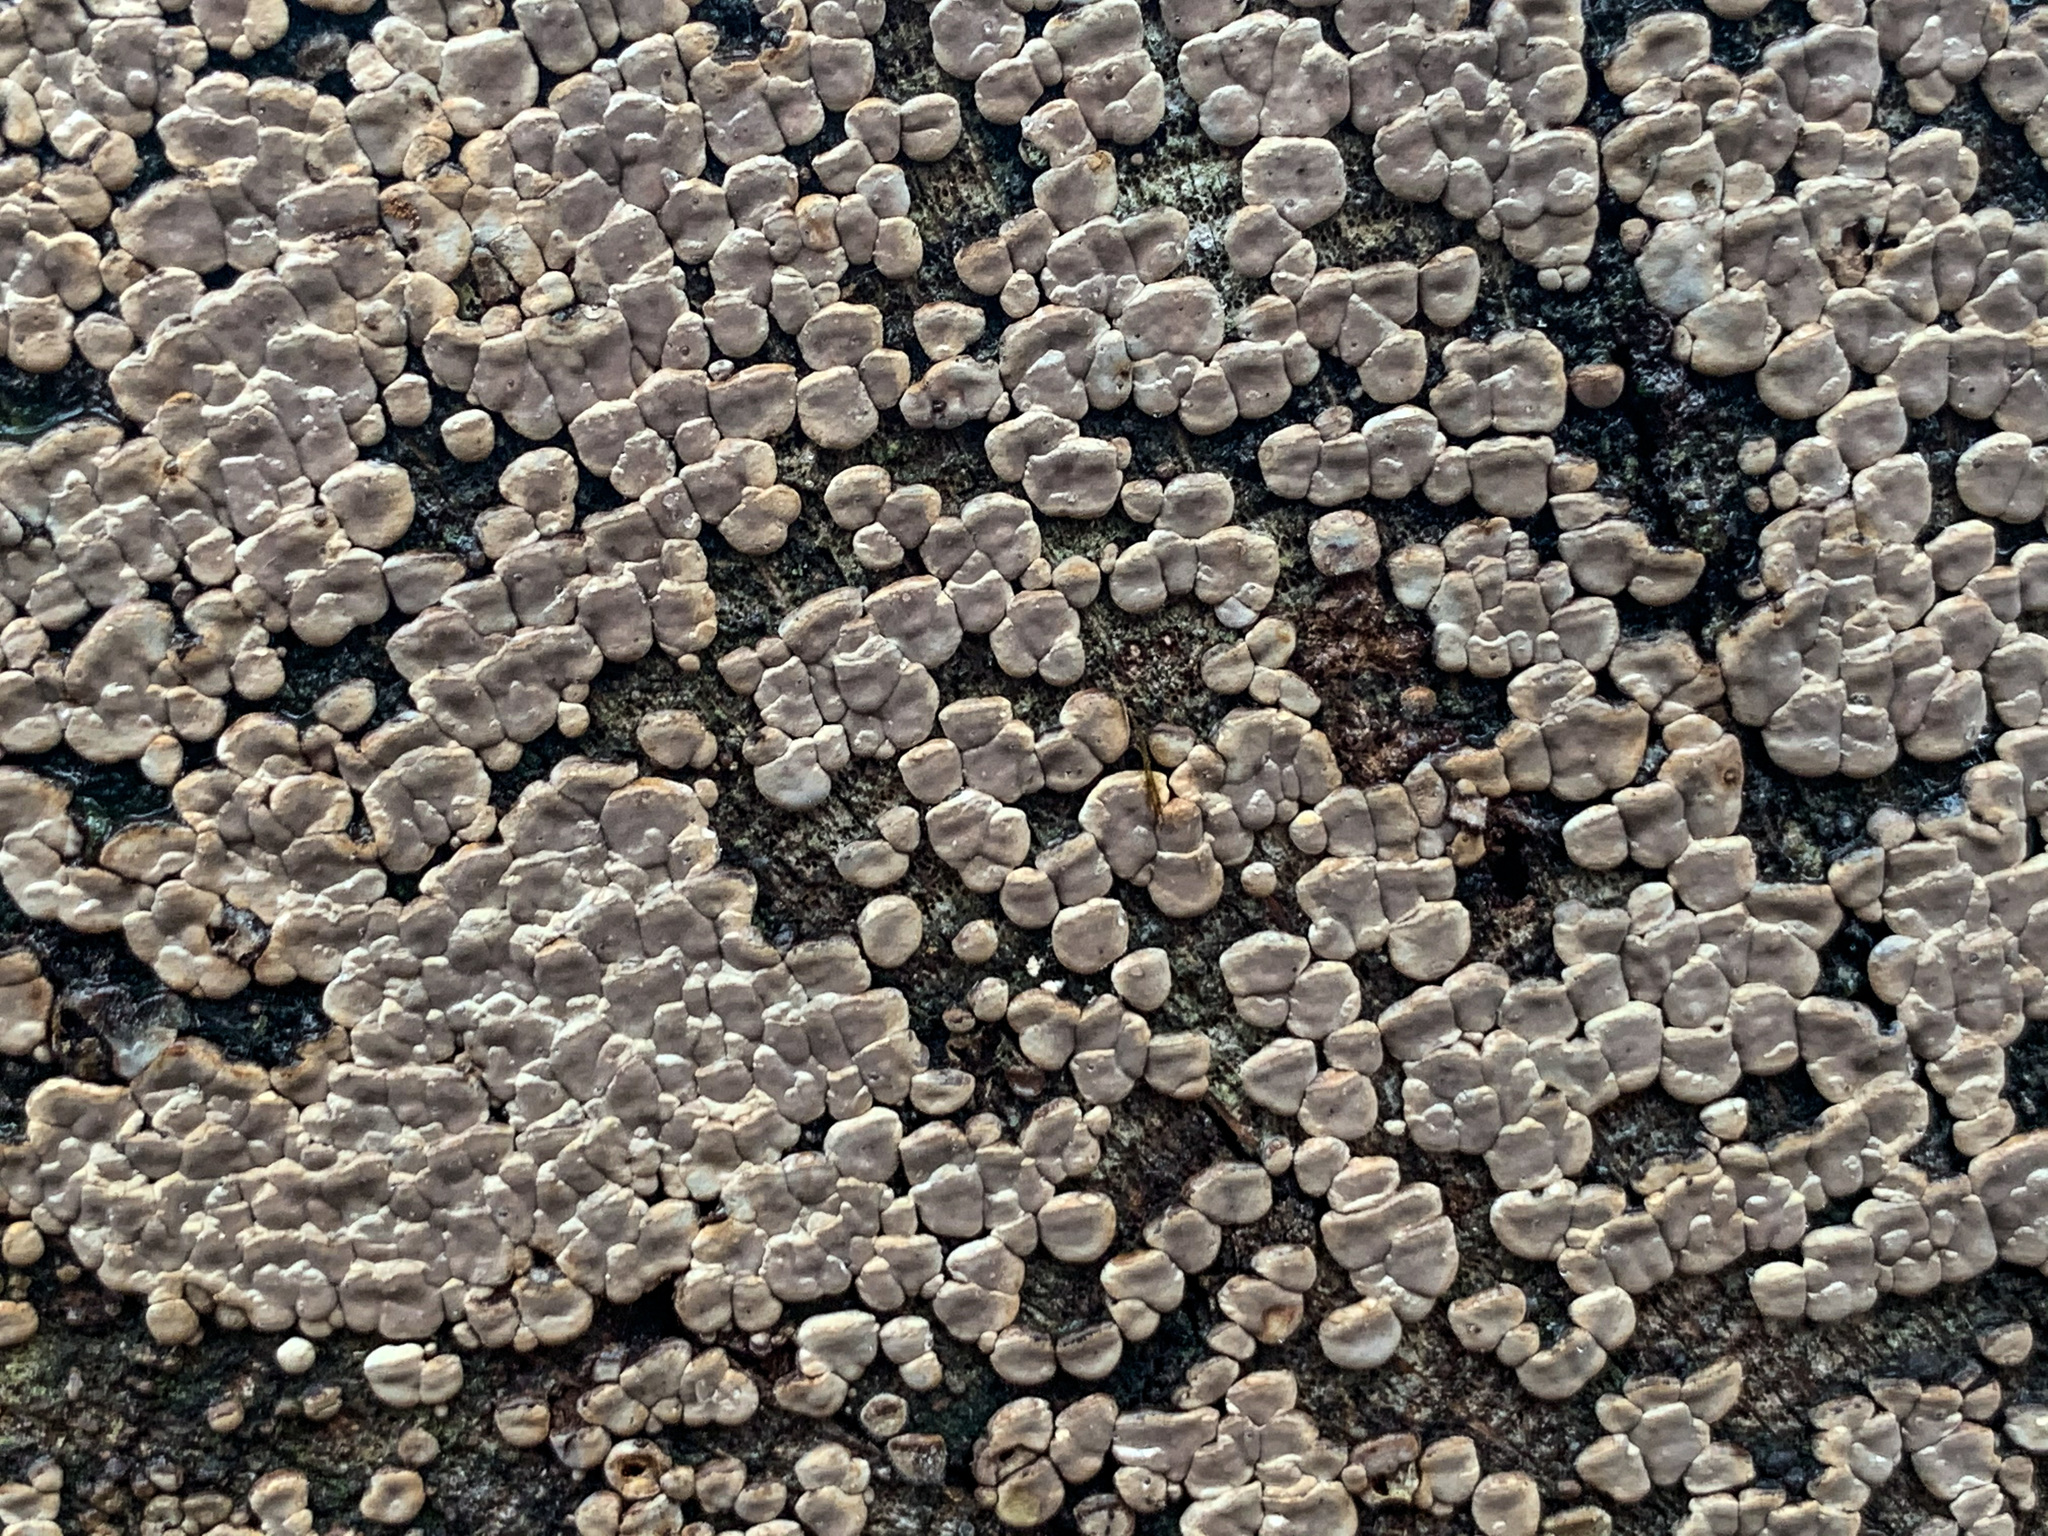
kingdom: Fungi
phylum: Basidiomycota
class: Agaricomycetes
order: Russulales
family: Stereaceae
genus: Xylobolus
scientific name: Xylobolus frustulatus
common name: Ceramic parchment
